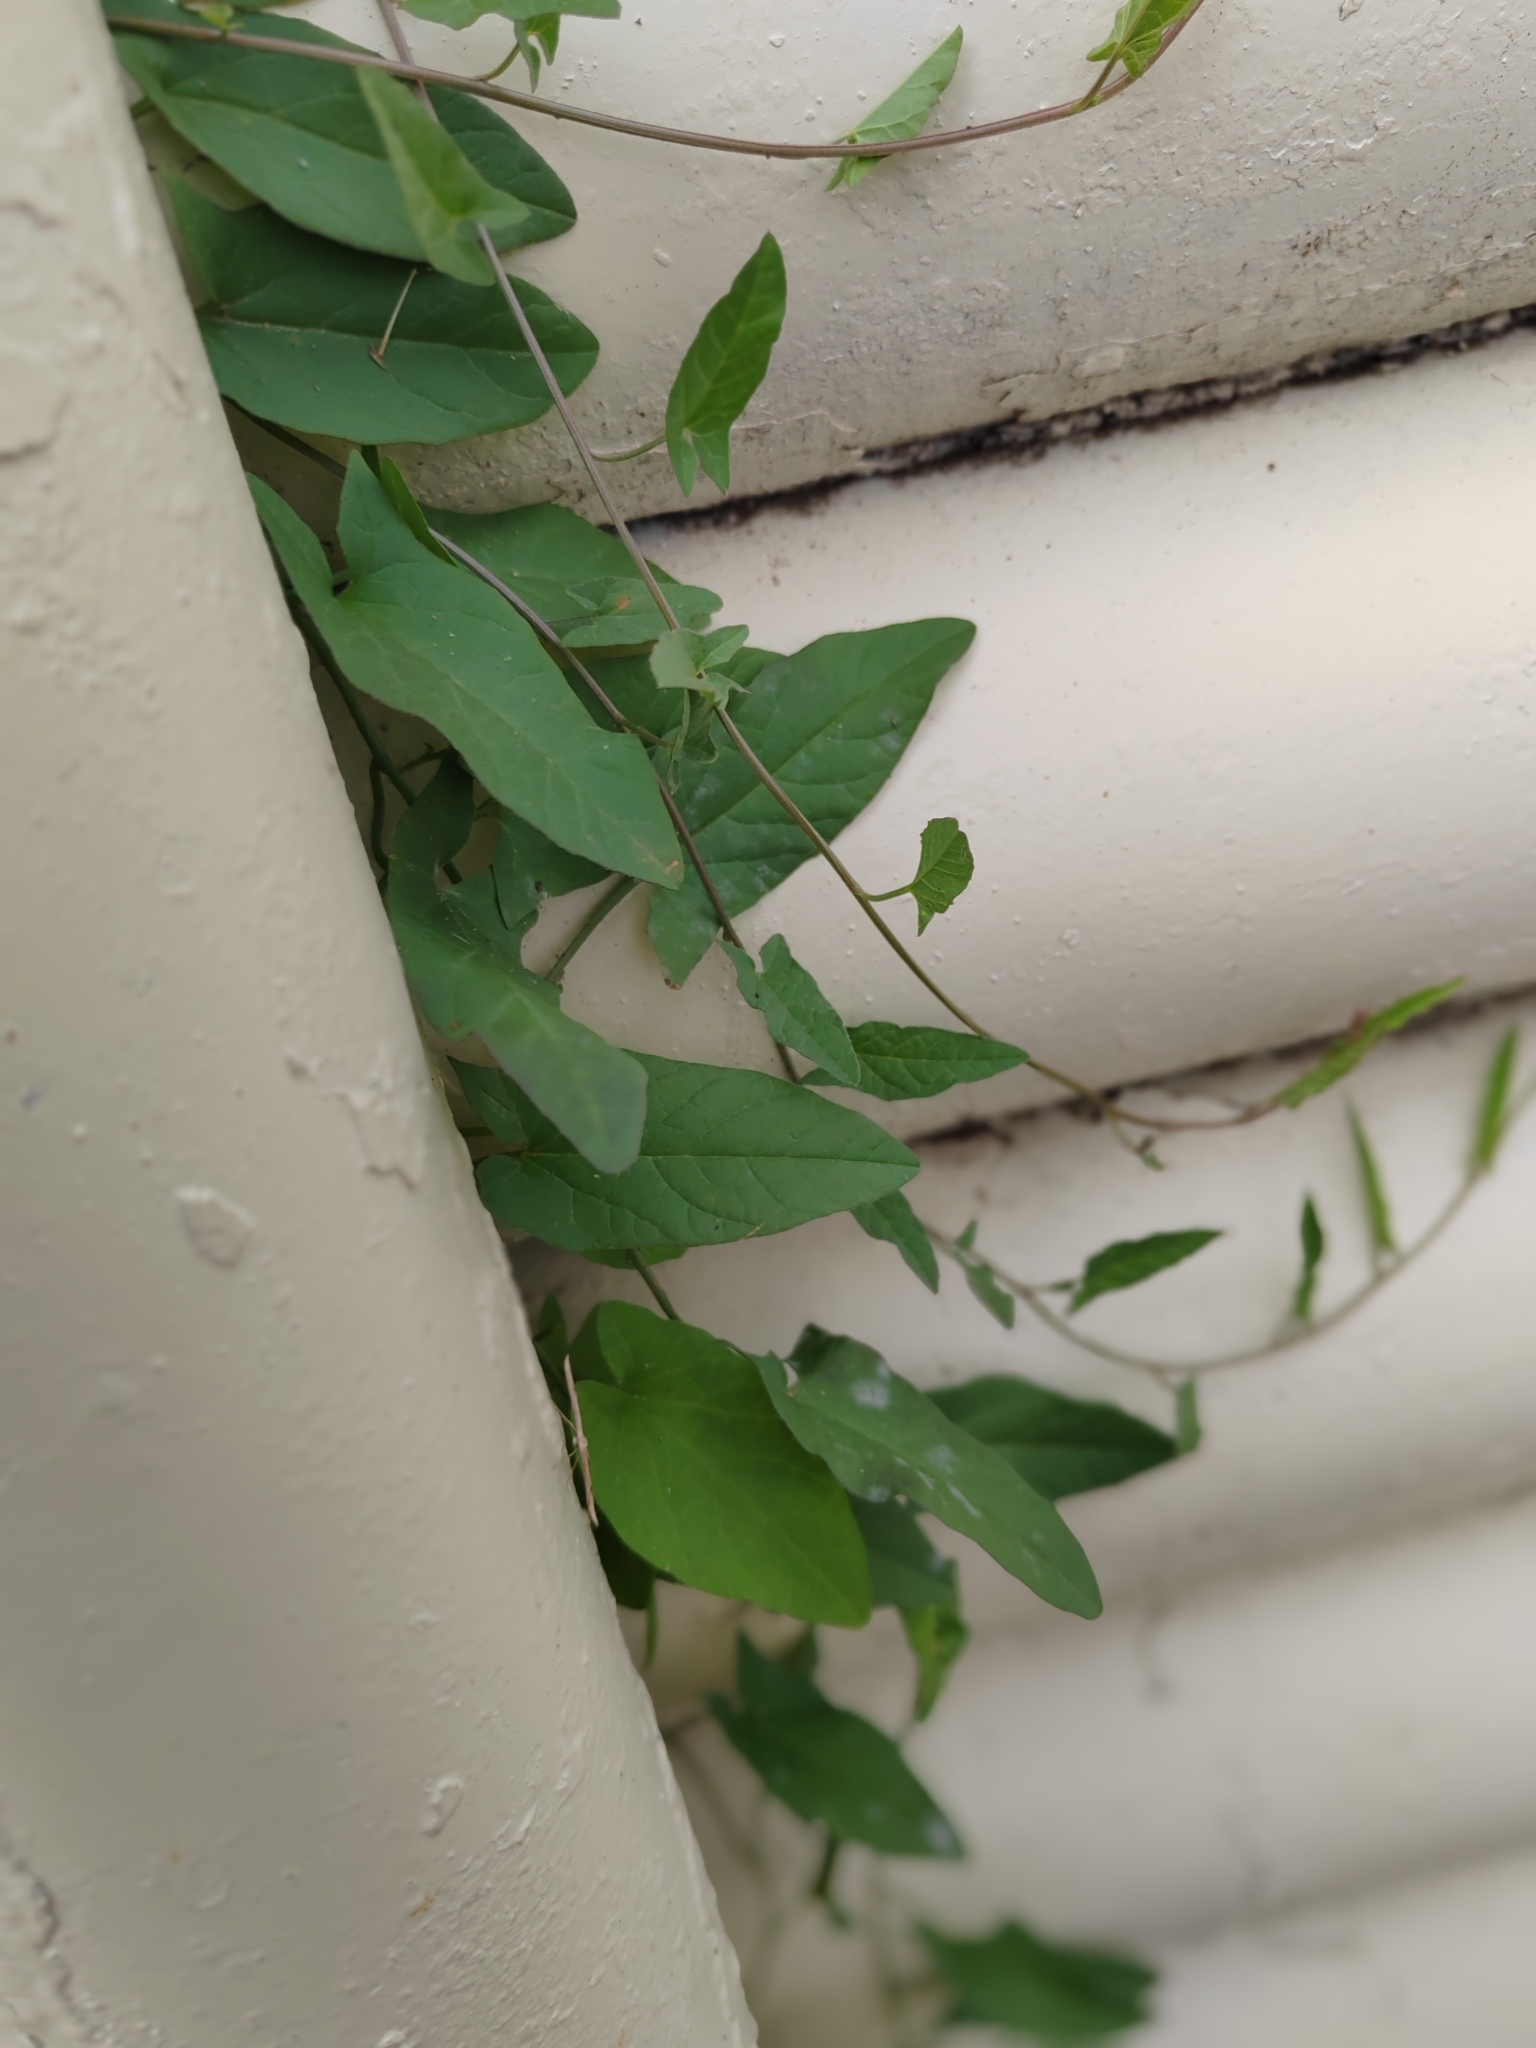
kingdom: Plantae
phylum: Tracheophyta
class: Magnoliopsida
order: Solanales
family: Convolvulaceae
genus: Convolvulus
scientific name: Convolvulus arvensis
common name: Field bindweed
